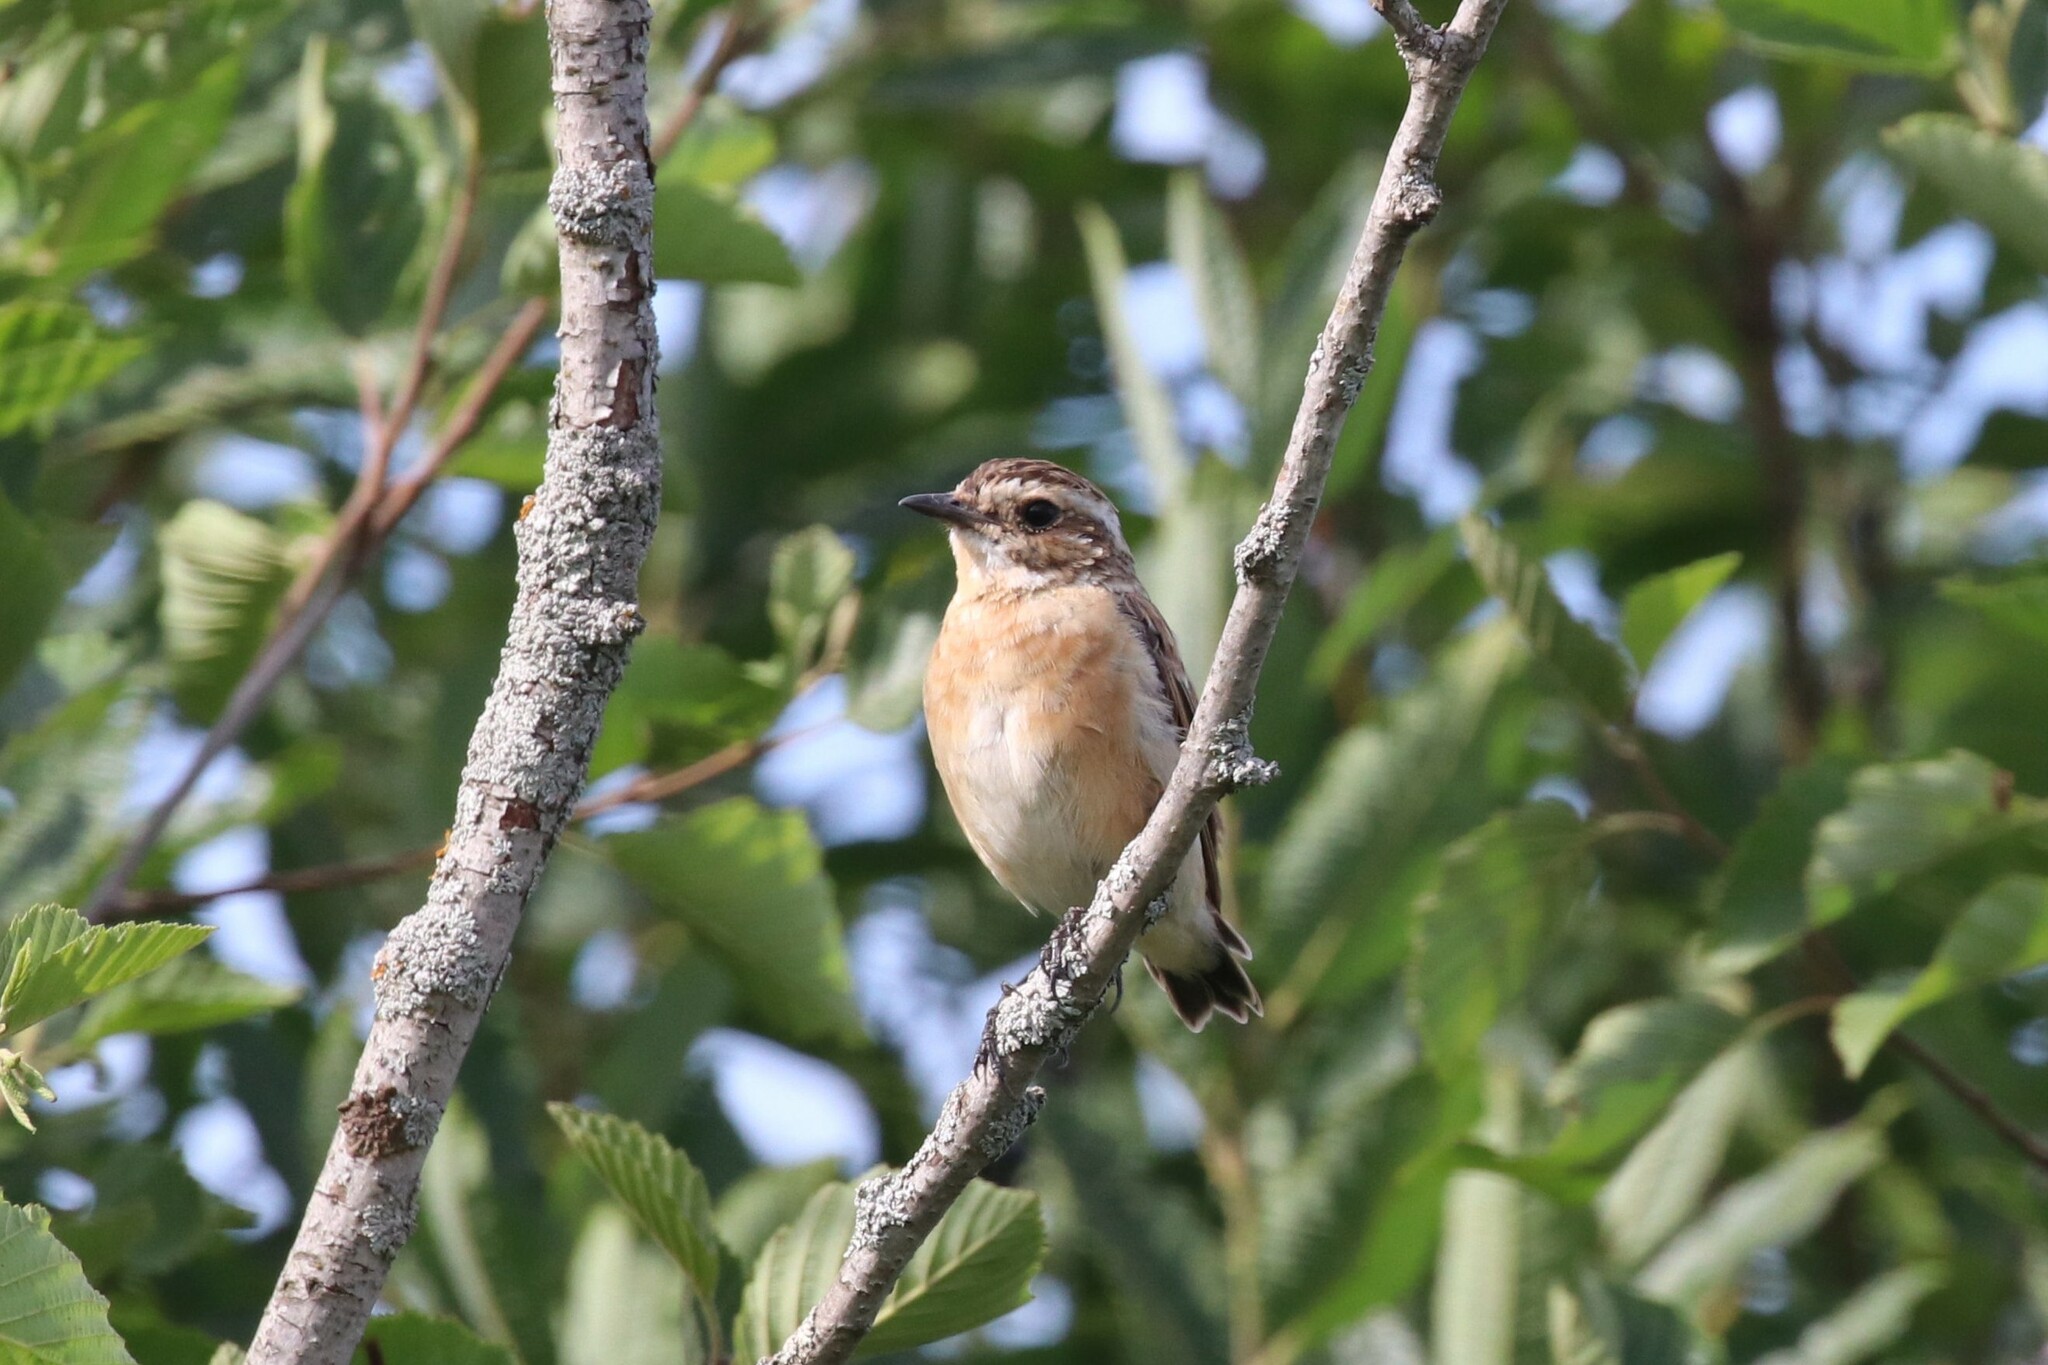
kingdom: Animalia
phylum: Chordata
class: Aves
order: Passeriformes
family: Muscicapidae
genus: Saxicola
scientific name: Saxicola rubetra
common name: Whinchat
